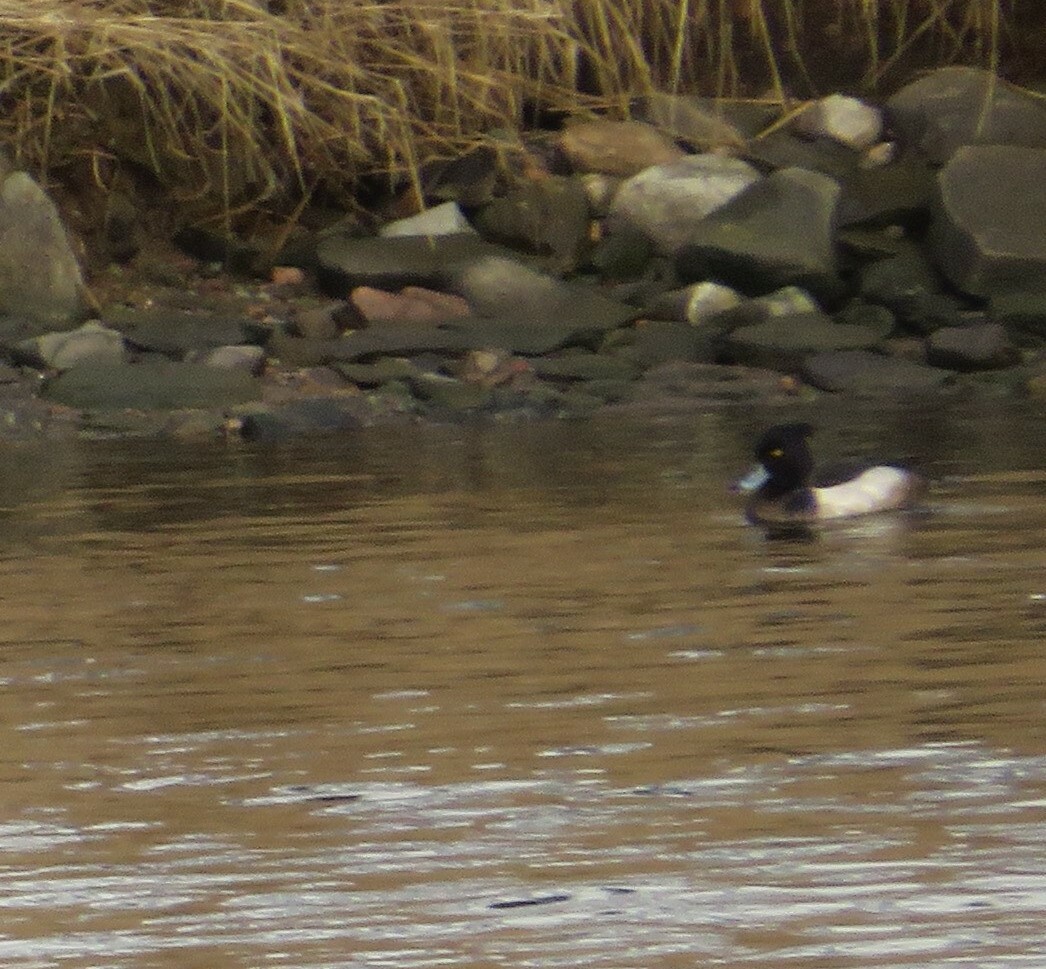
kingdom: Animalia
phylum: Chordata
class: Aves
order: Anseriformes
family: Anatidae
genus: Aythya
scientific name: Aythya fuligula
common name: Tufted duck
